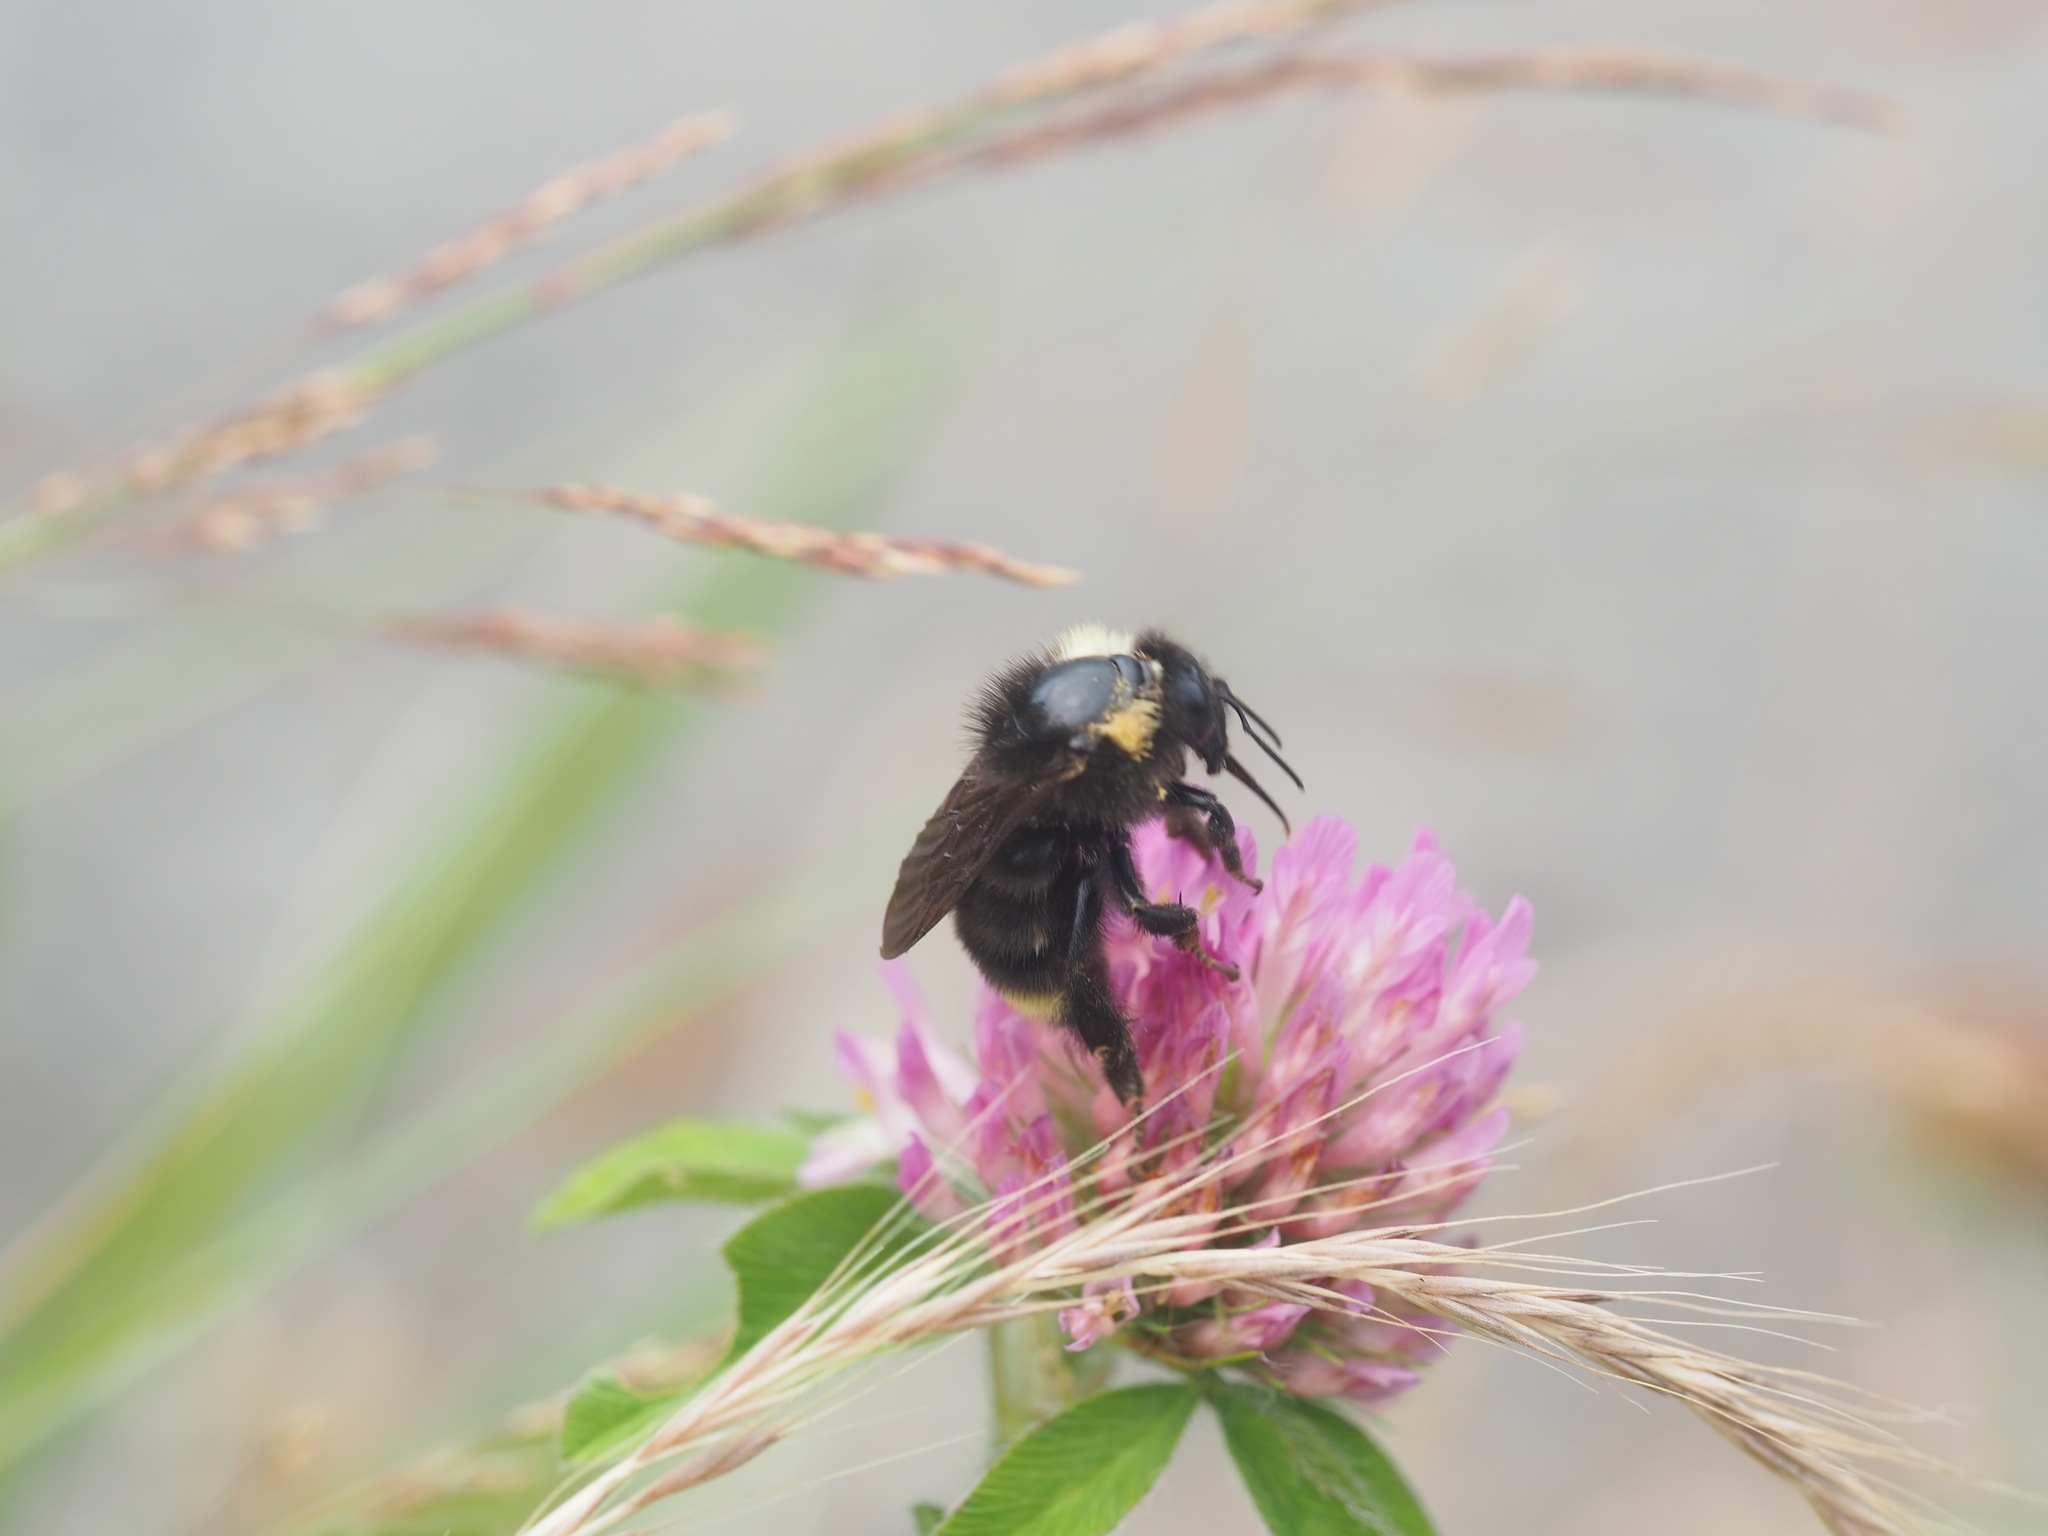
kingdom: Animalia
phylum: Arthropoda
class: Insecta
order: Hymenoptera
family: Apidae
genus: Bombus
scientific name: Bombus californicus
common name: California bumble bee
